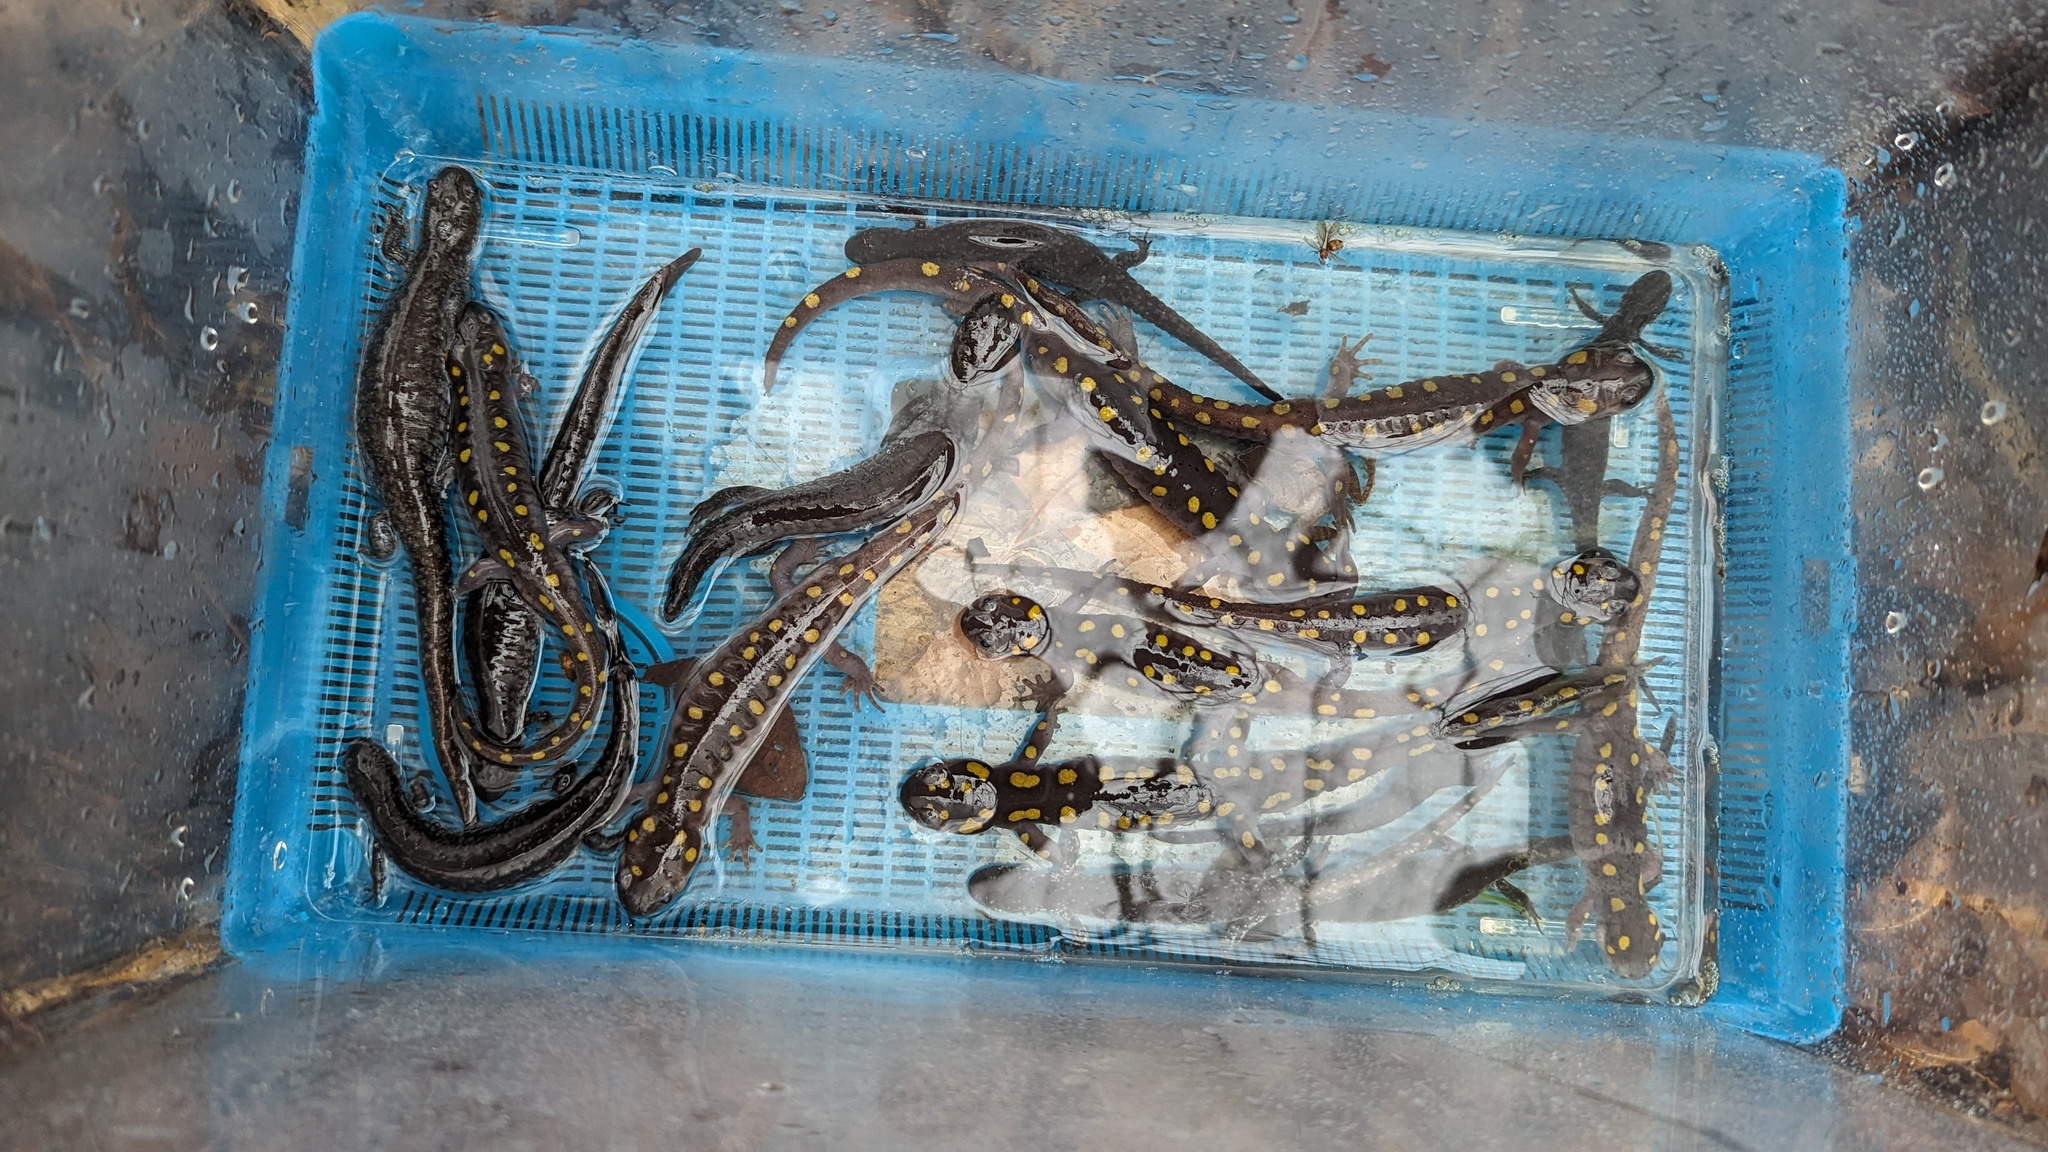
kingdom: Animalia
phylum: Chordata
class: Amphibia
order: Caudata
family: Ambystomatidae
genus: Ambystoma
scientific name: Ambystoma maculatum
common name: Spotted salamander
